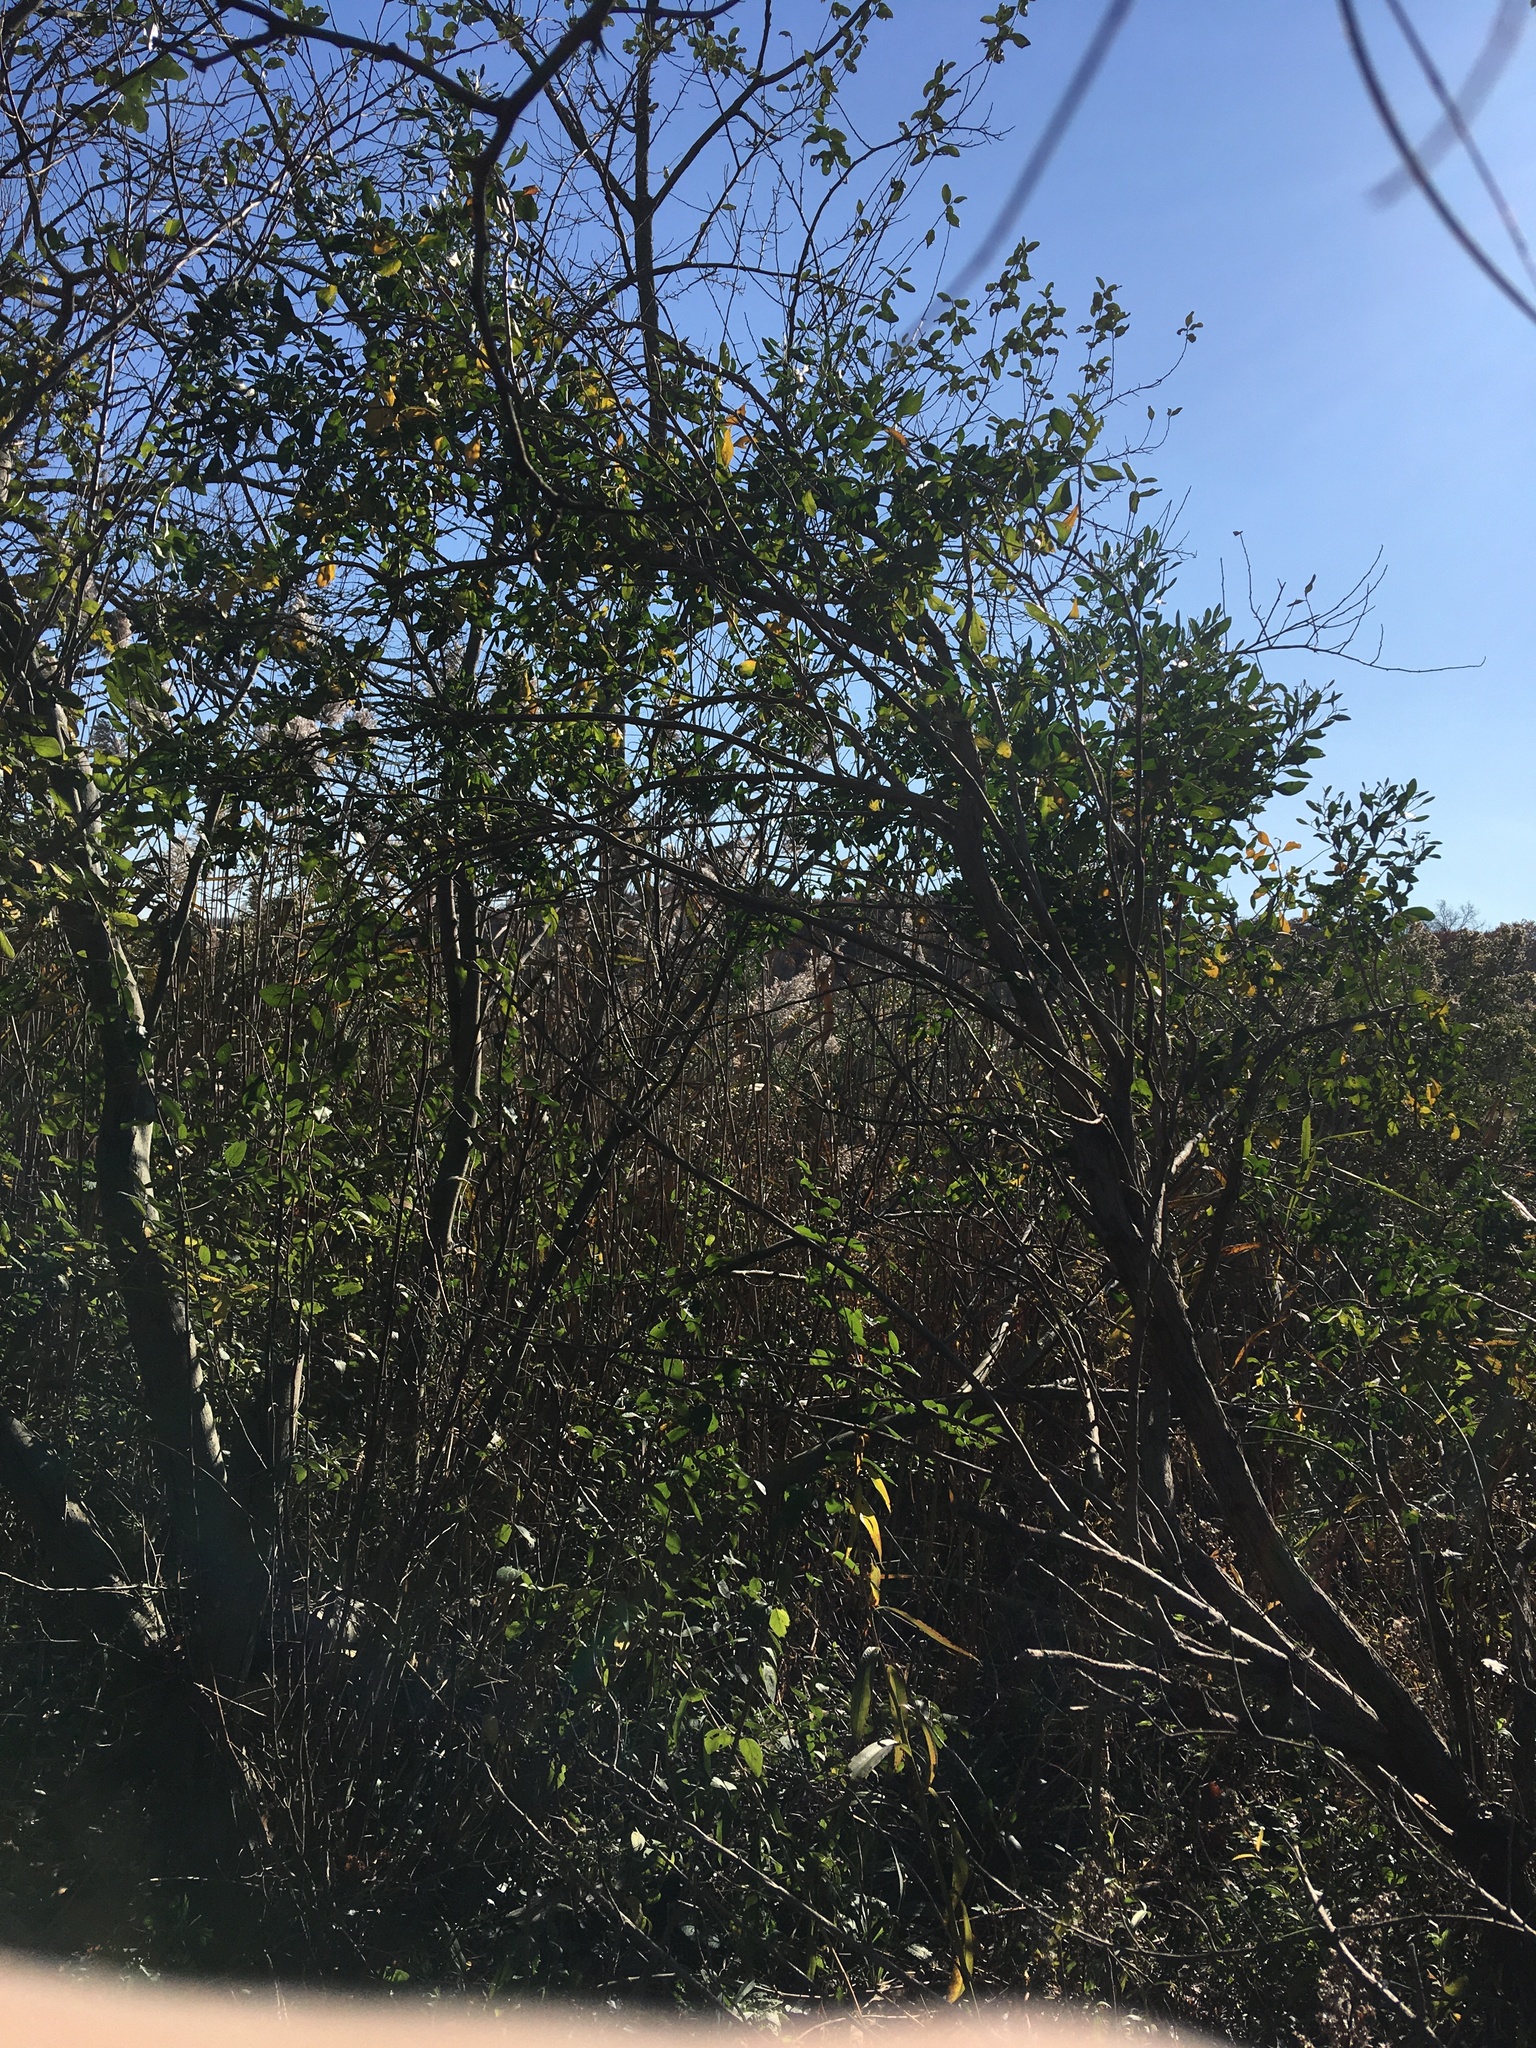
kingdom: Plantae
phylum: Tracheophyta
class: Magnoliopsida
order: Asterales
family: Asteraceae
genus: Baccharis
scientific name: Baccharis halimifolia
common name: Eastern baccharis
